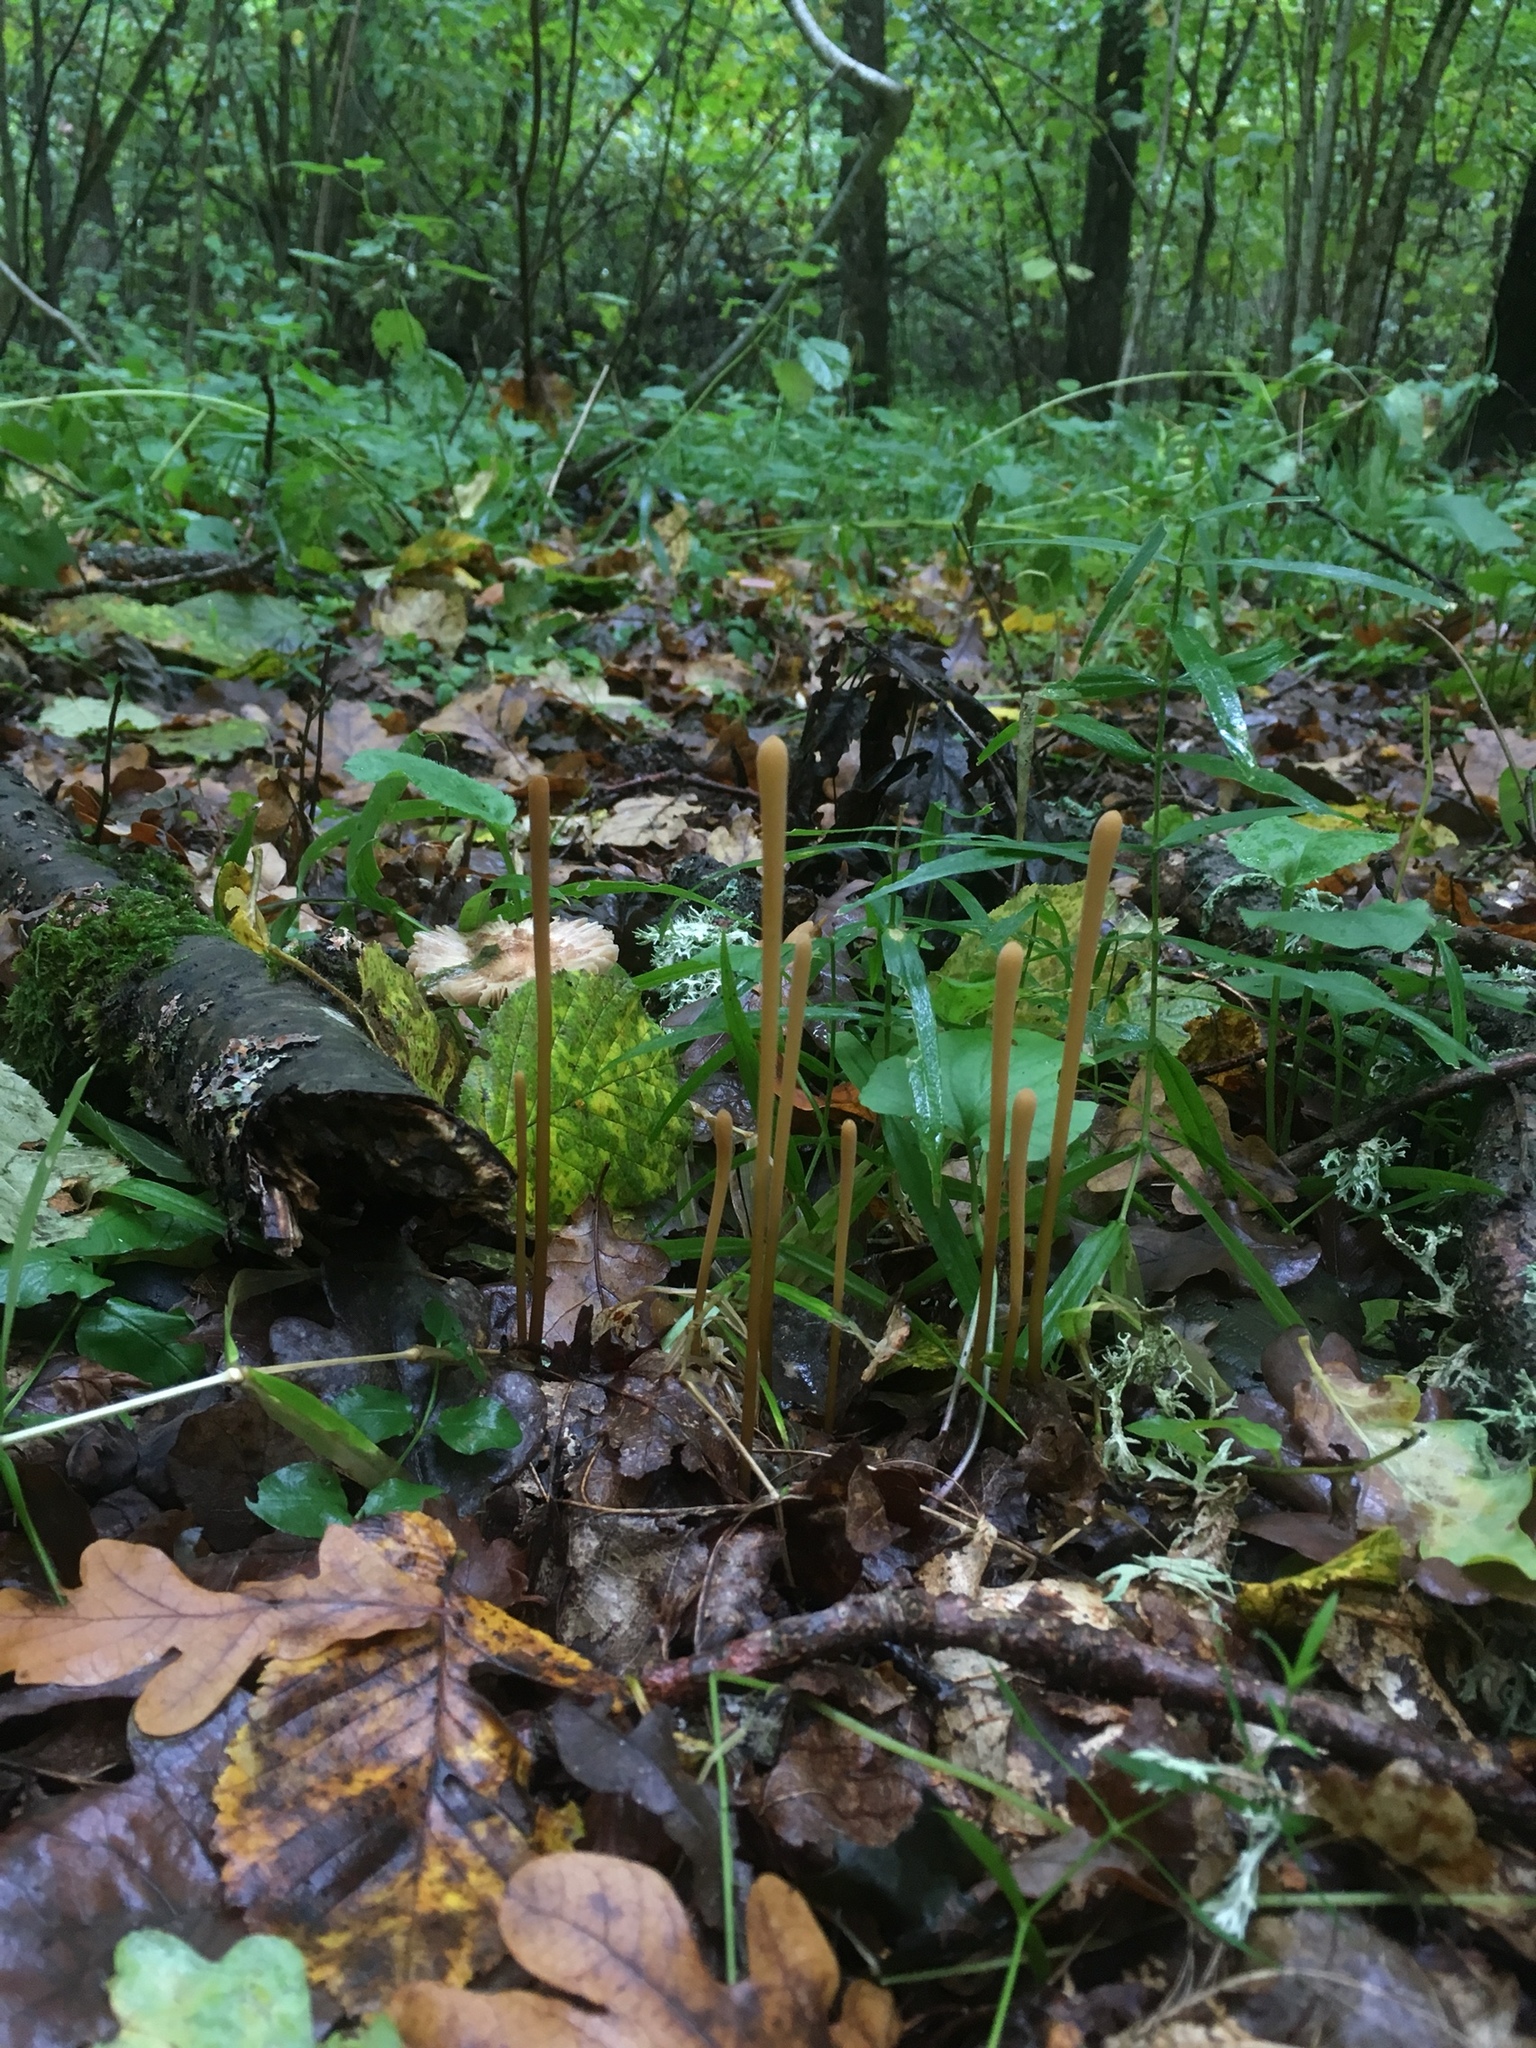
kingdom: Fungi
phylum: Basidiomycota
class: Agaricomycetes
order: Agaricales
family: Typhulaceae
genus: Typhula
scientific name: Typhula fistulosa
